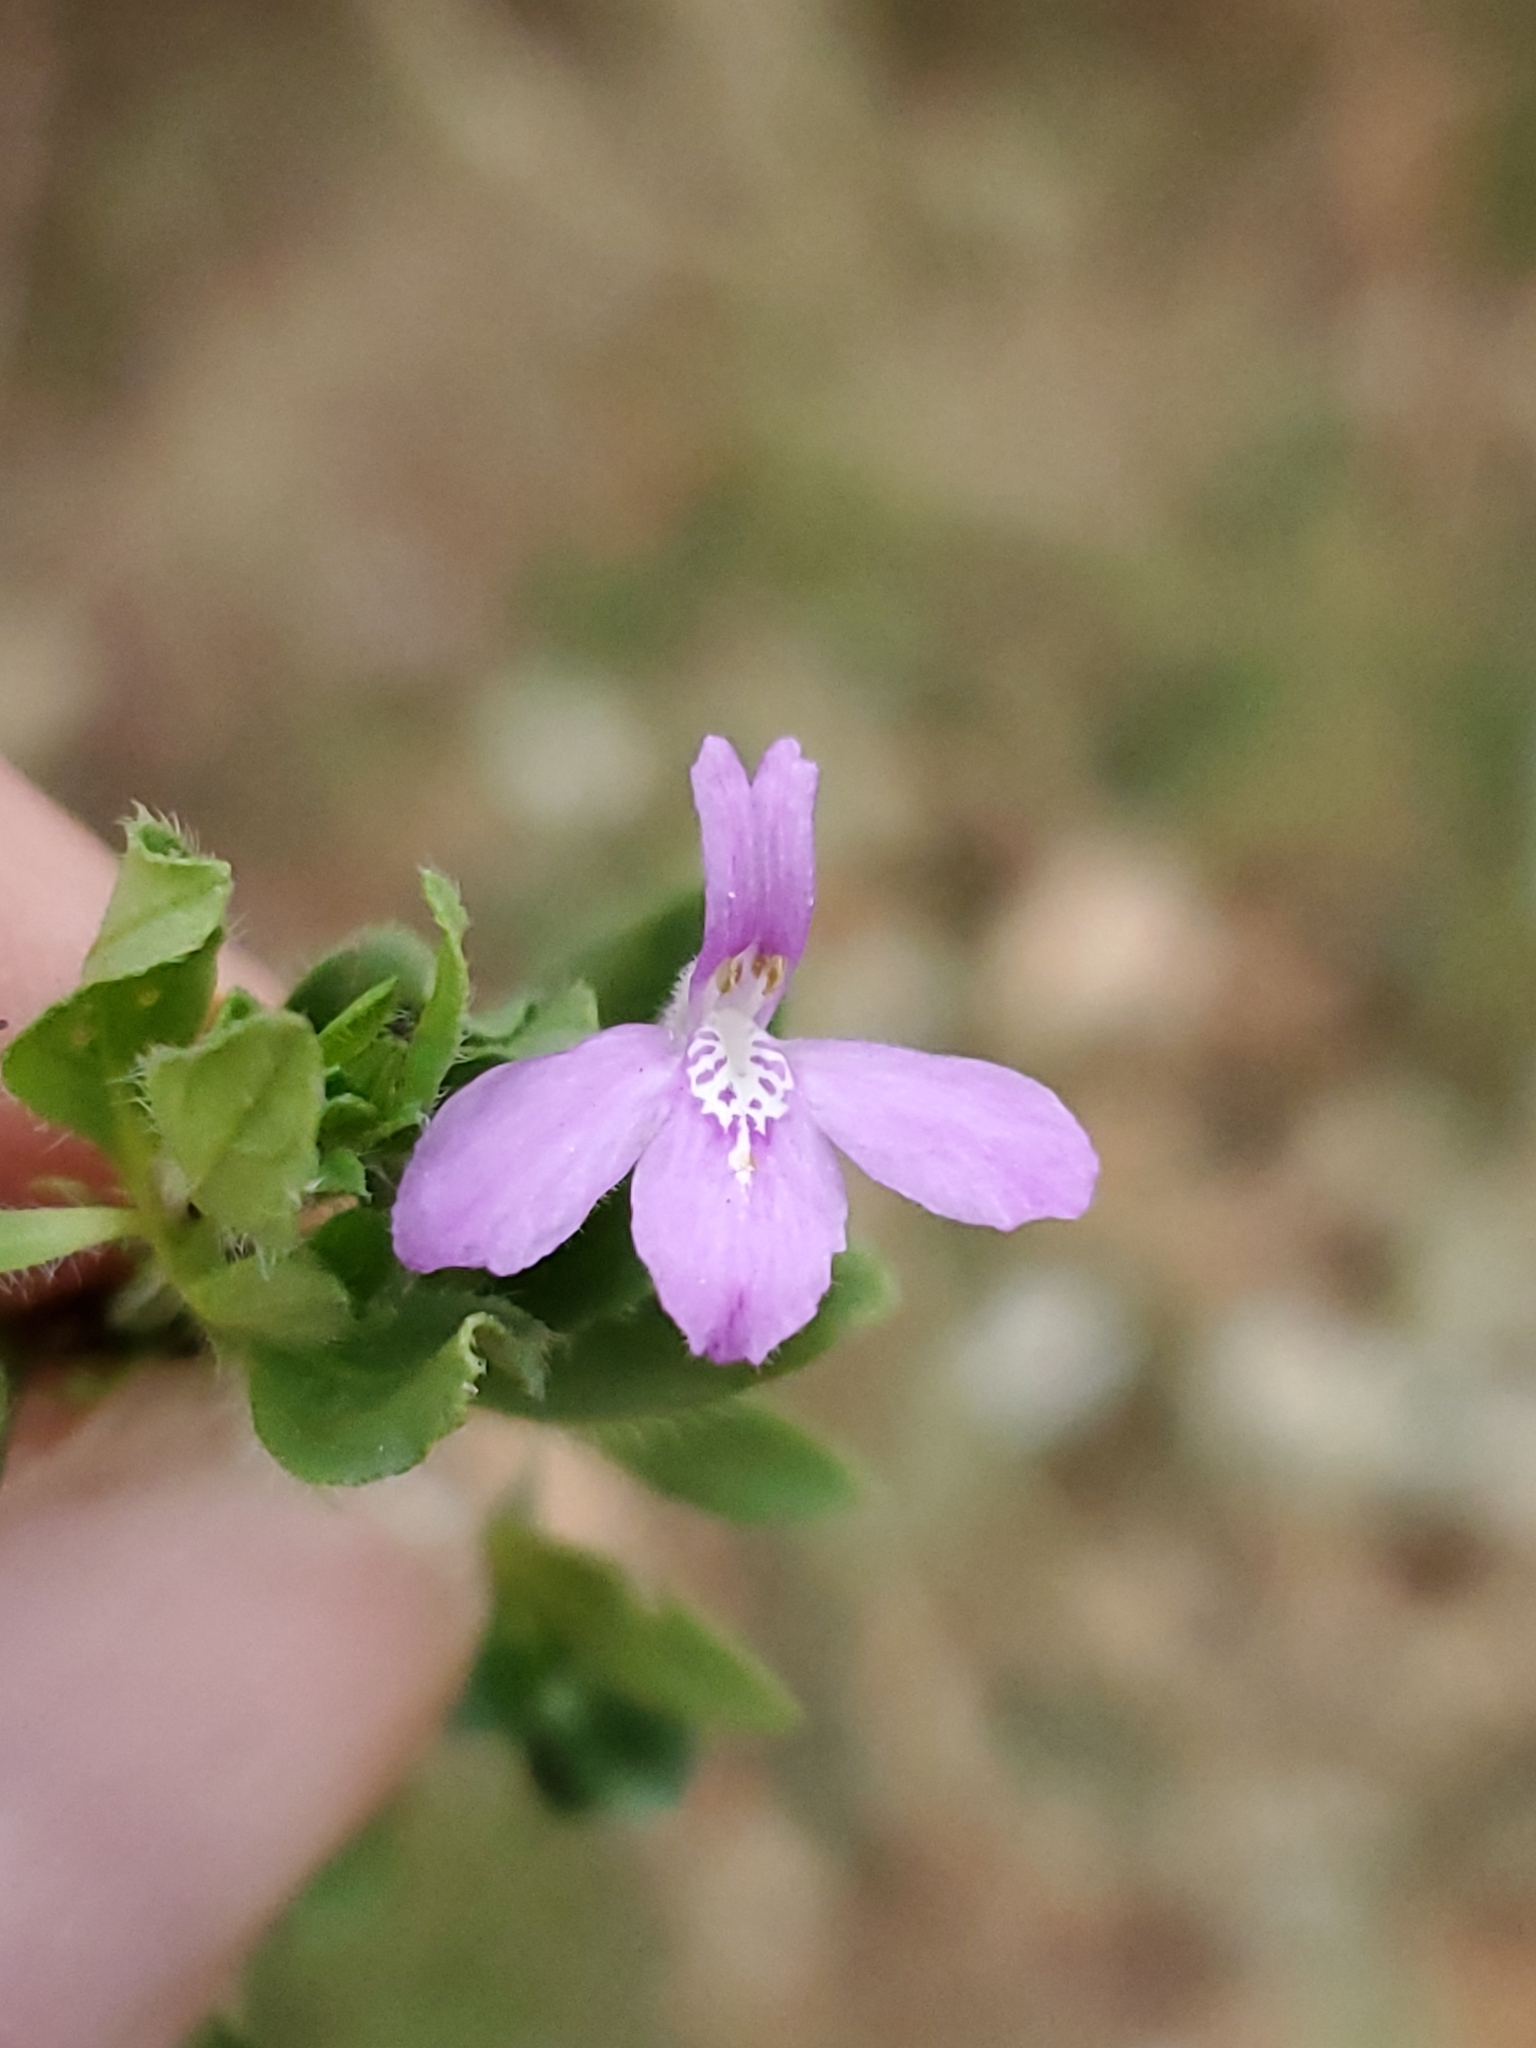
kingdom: Plantae
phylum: Tracheophyta
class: Magnoliopsida
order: Lamiales
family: Acanthaceae
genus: Justicia
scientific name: Justicia pilosella
